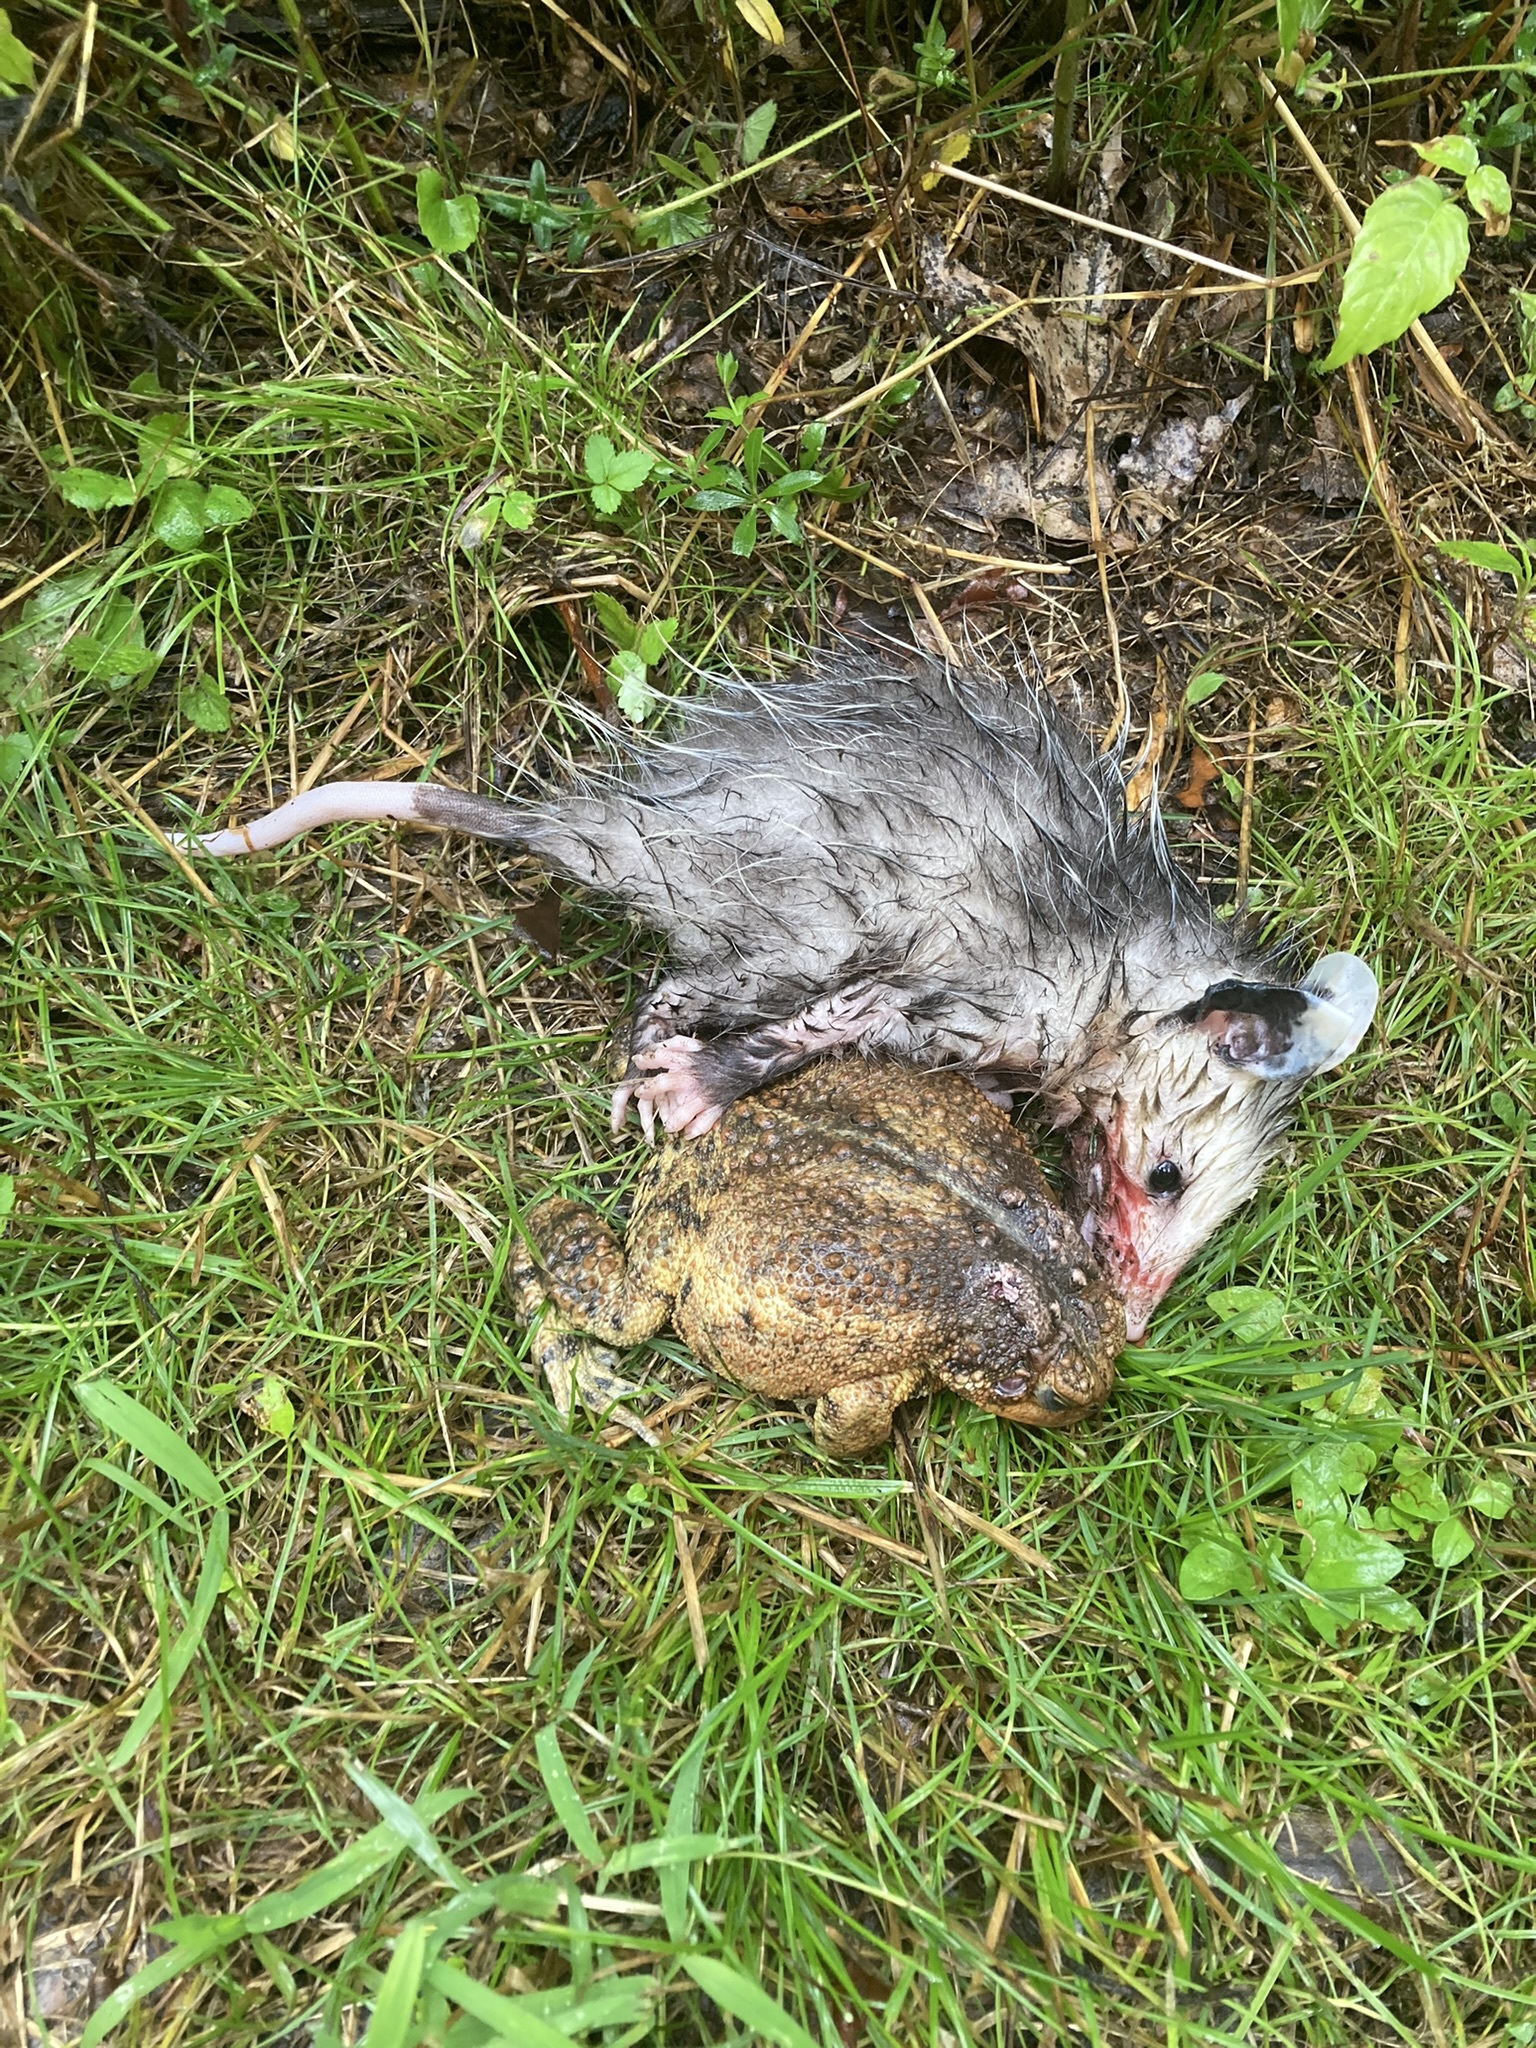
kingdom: Animalia
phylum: Chordata
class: Mammalia
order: Didelphimorphia
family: Didelphidae
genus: Didelphis
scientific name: Didelphis virginiana
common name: Virginia opossum
